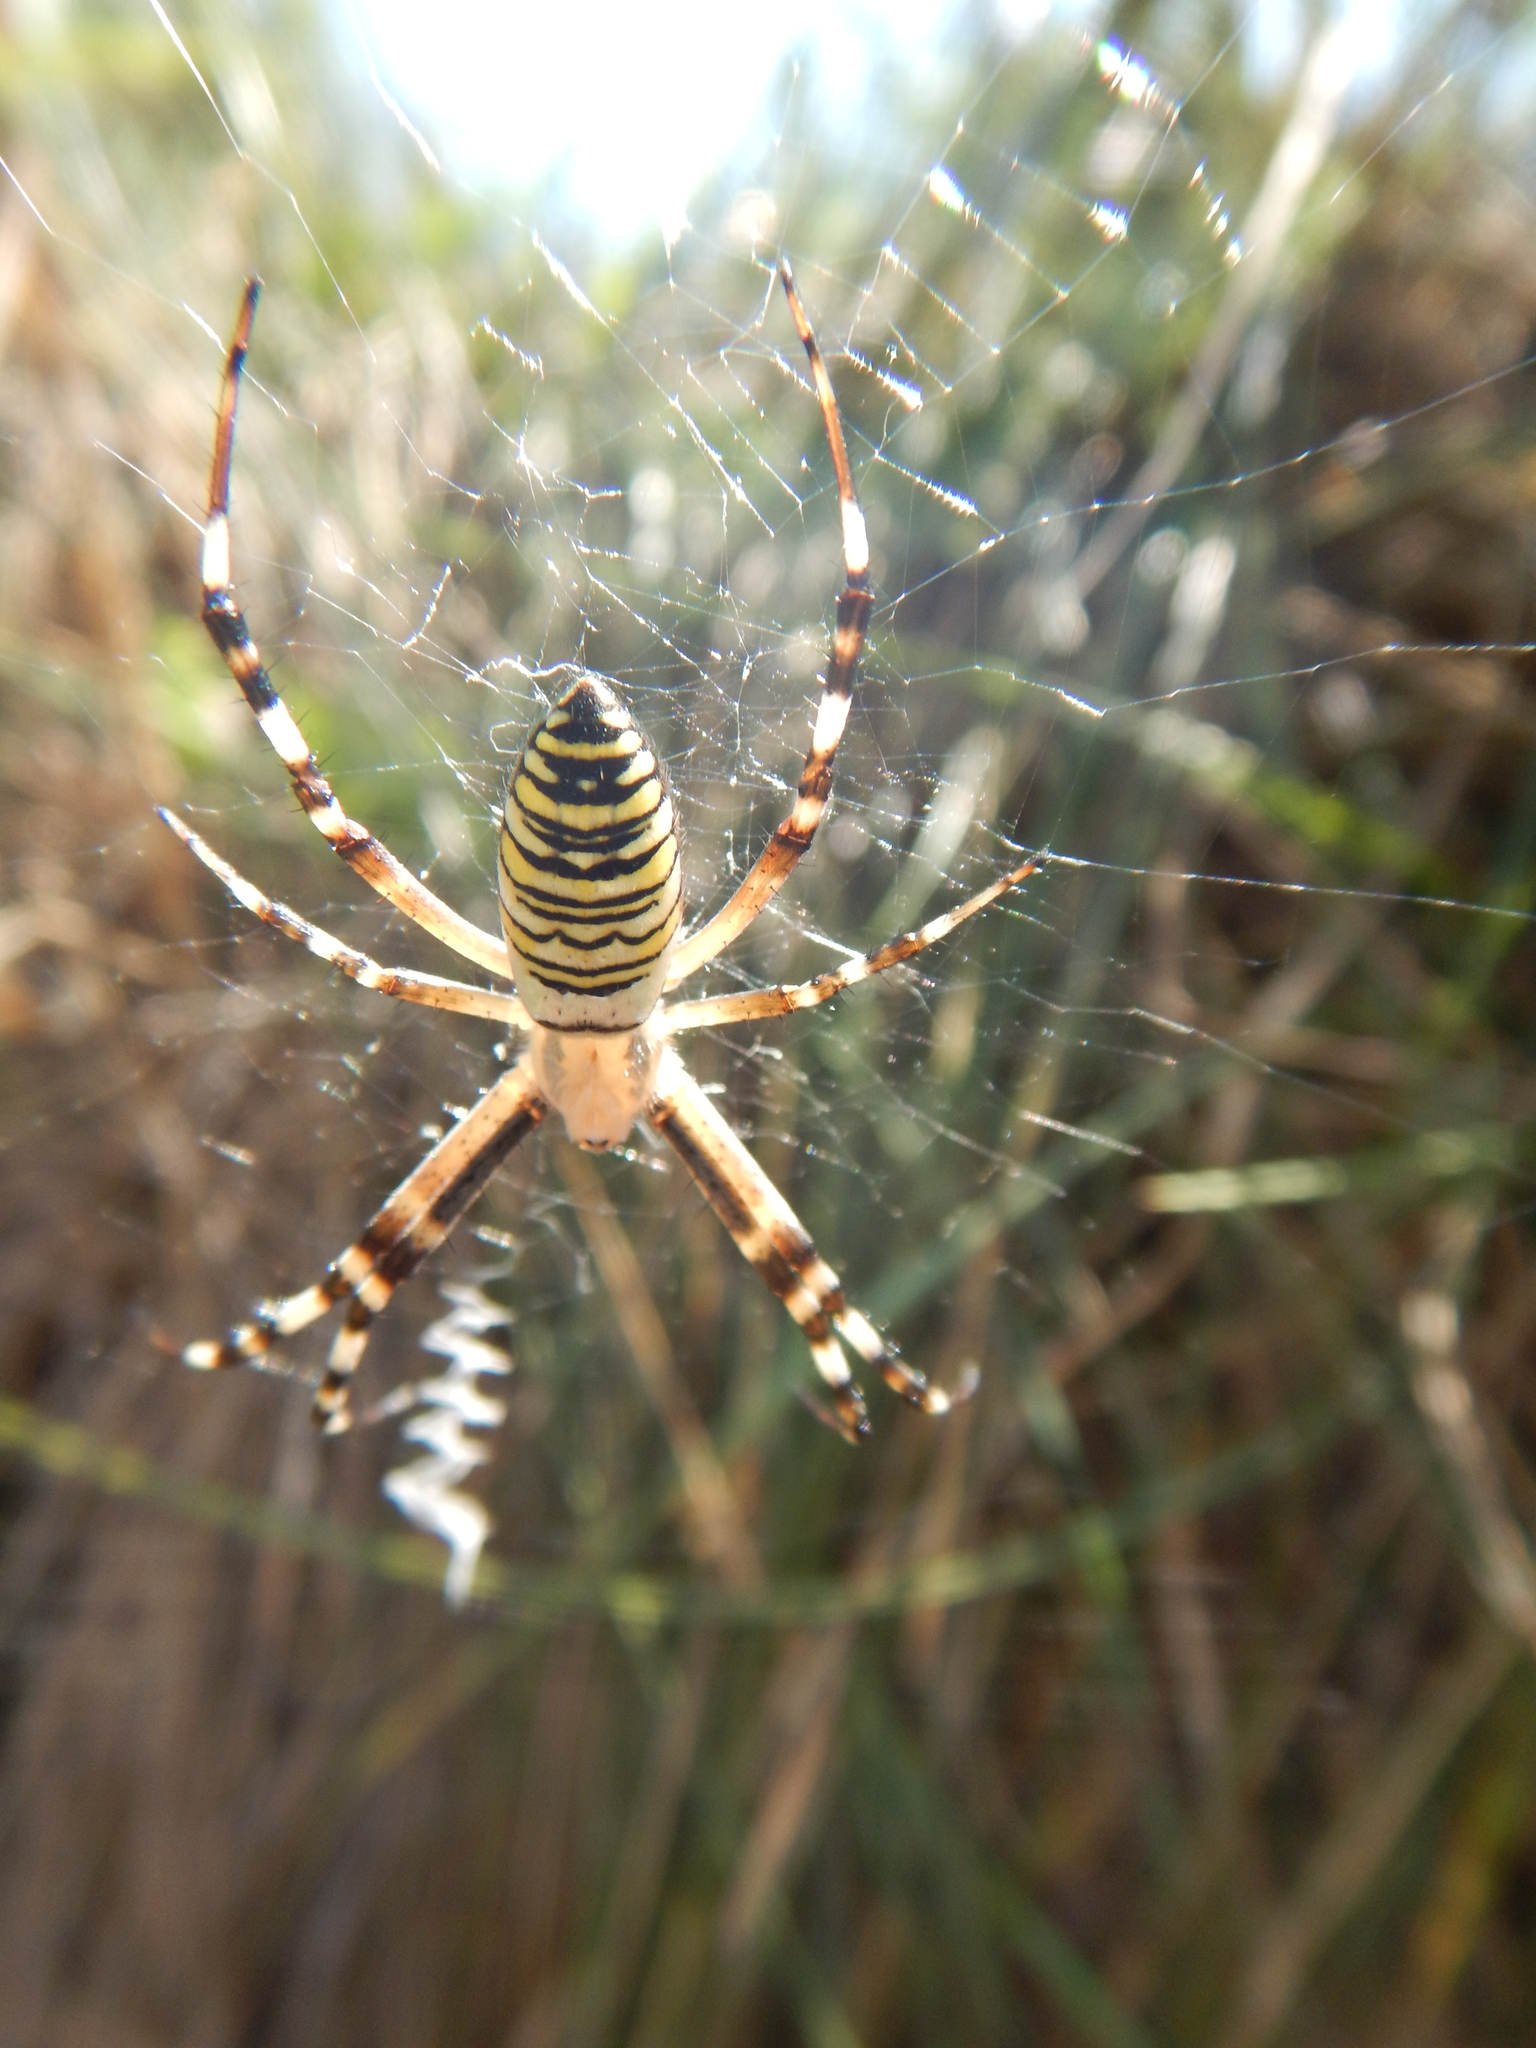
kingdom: Animalia
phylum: Arthropoda
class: Arachnida
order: Araneae
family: Araneidae
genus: Argiope
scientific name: Argiope bruennichi
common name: Wasp spider
